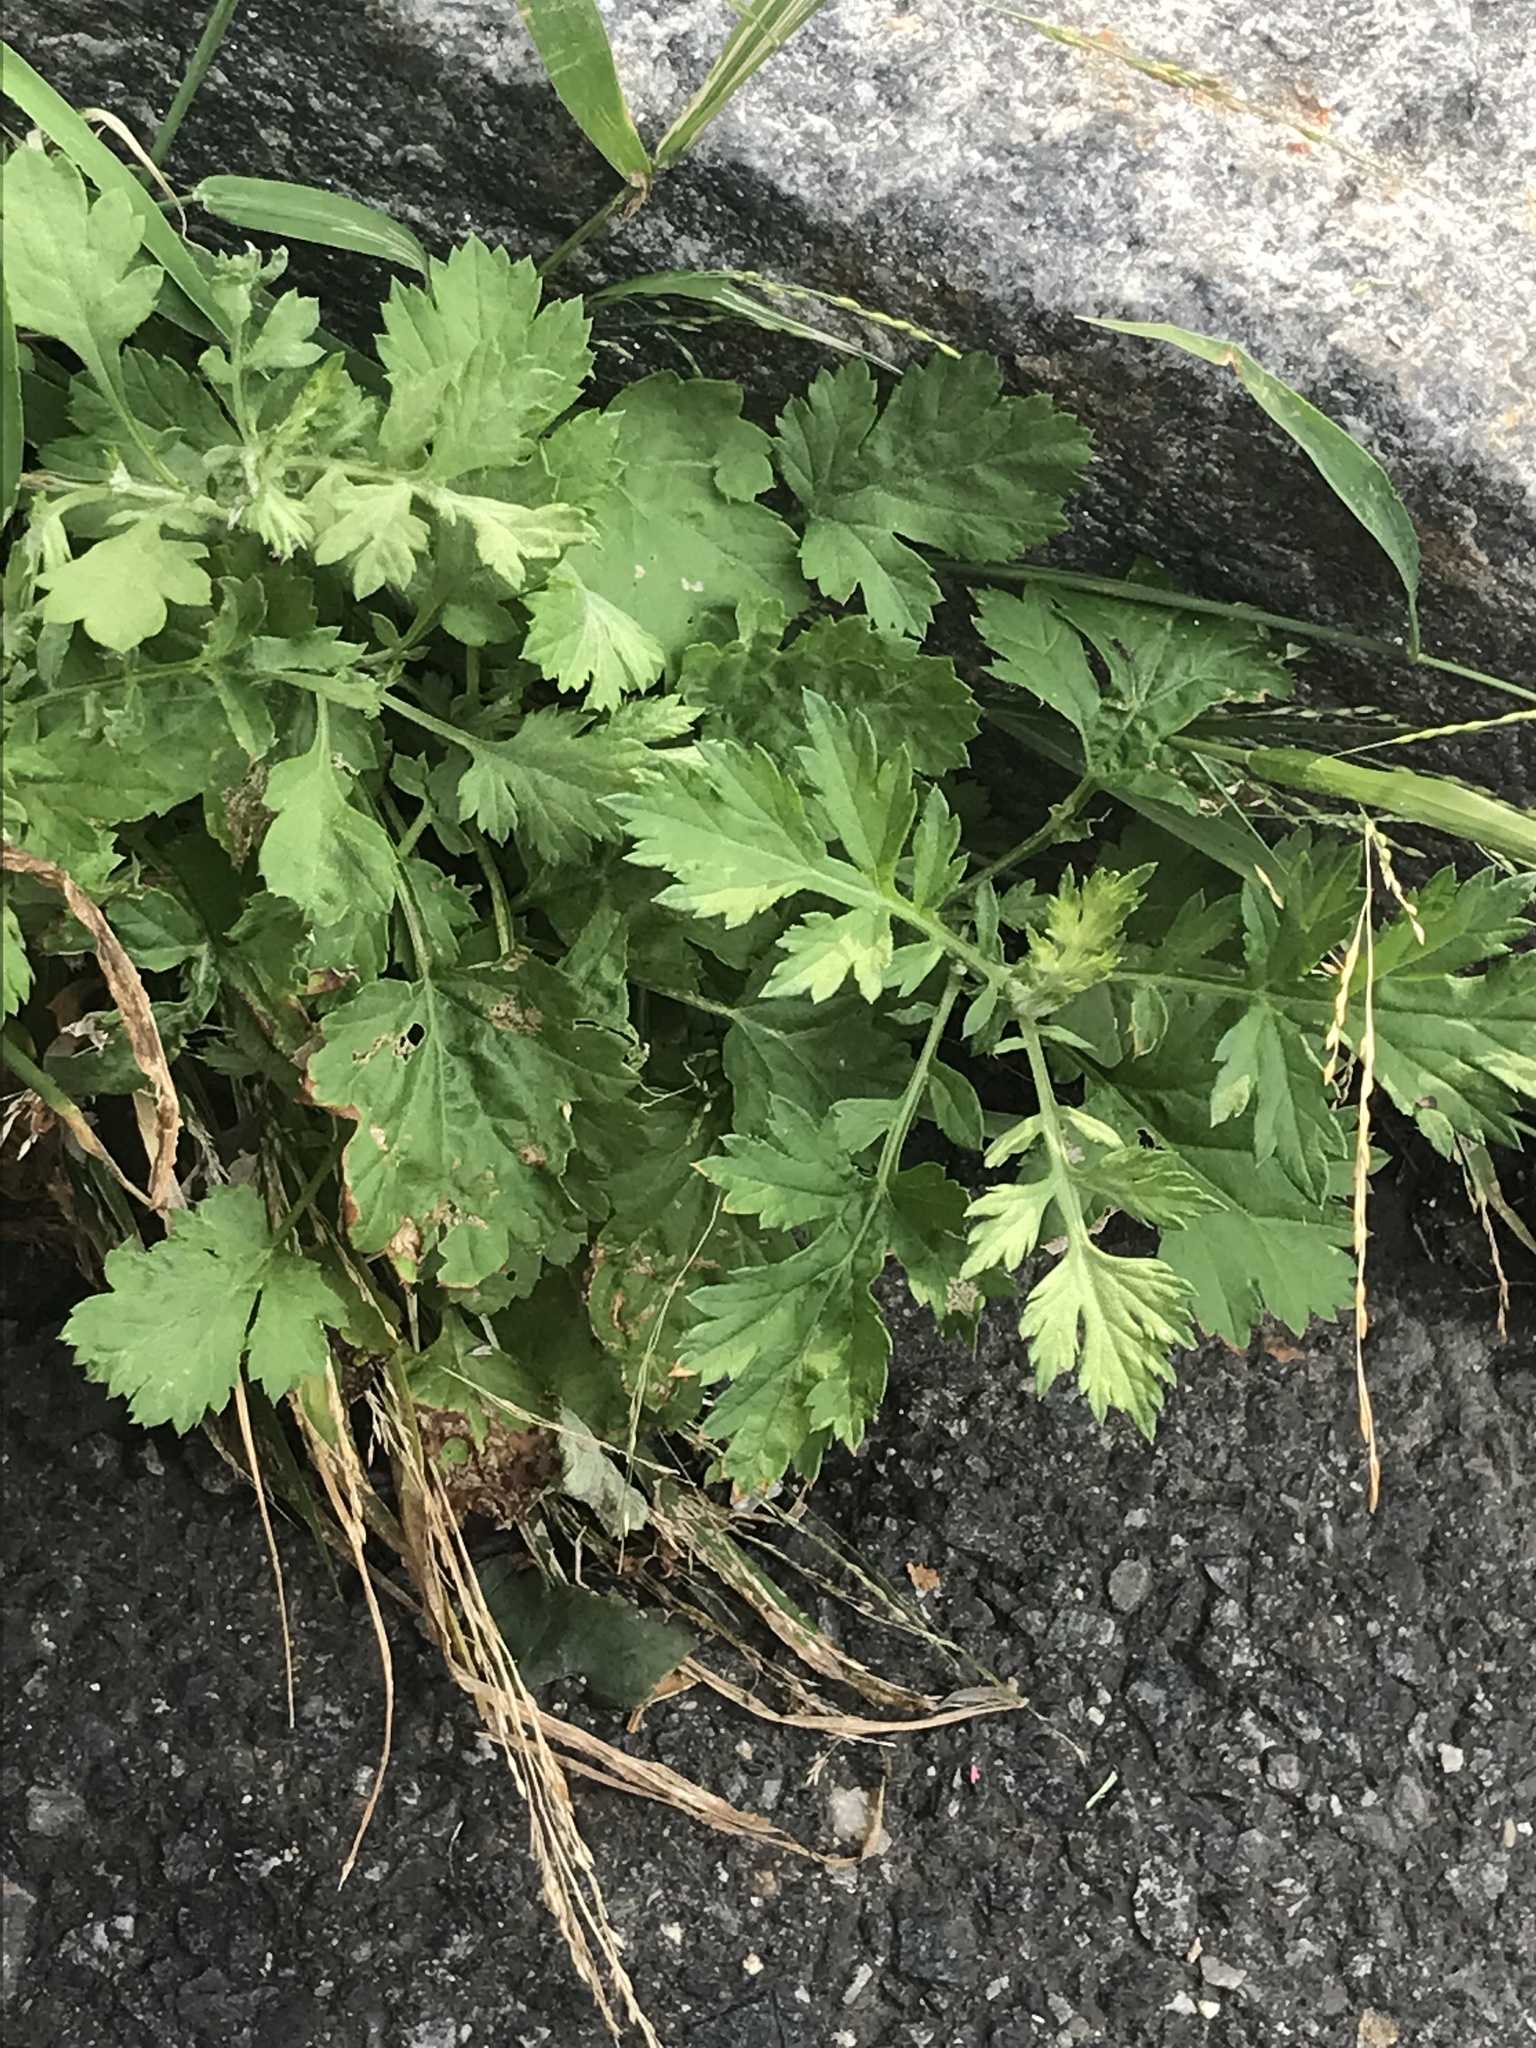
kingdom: Plantae
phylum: Tracheophyta
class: Magnoliopsida
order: Asterales
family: Asteraceae
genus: Artemisia
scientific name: Artemisia vulgaris
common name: Mugwort
